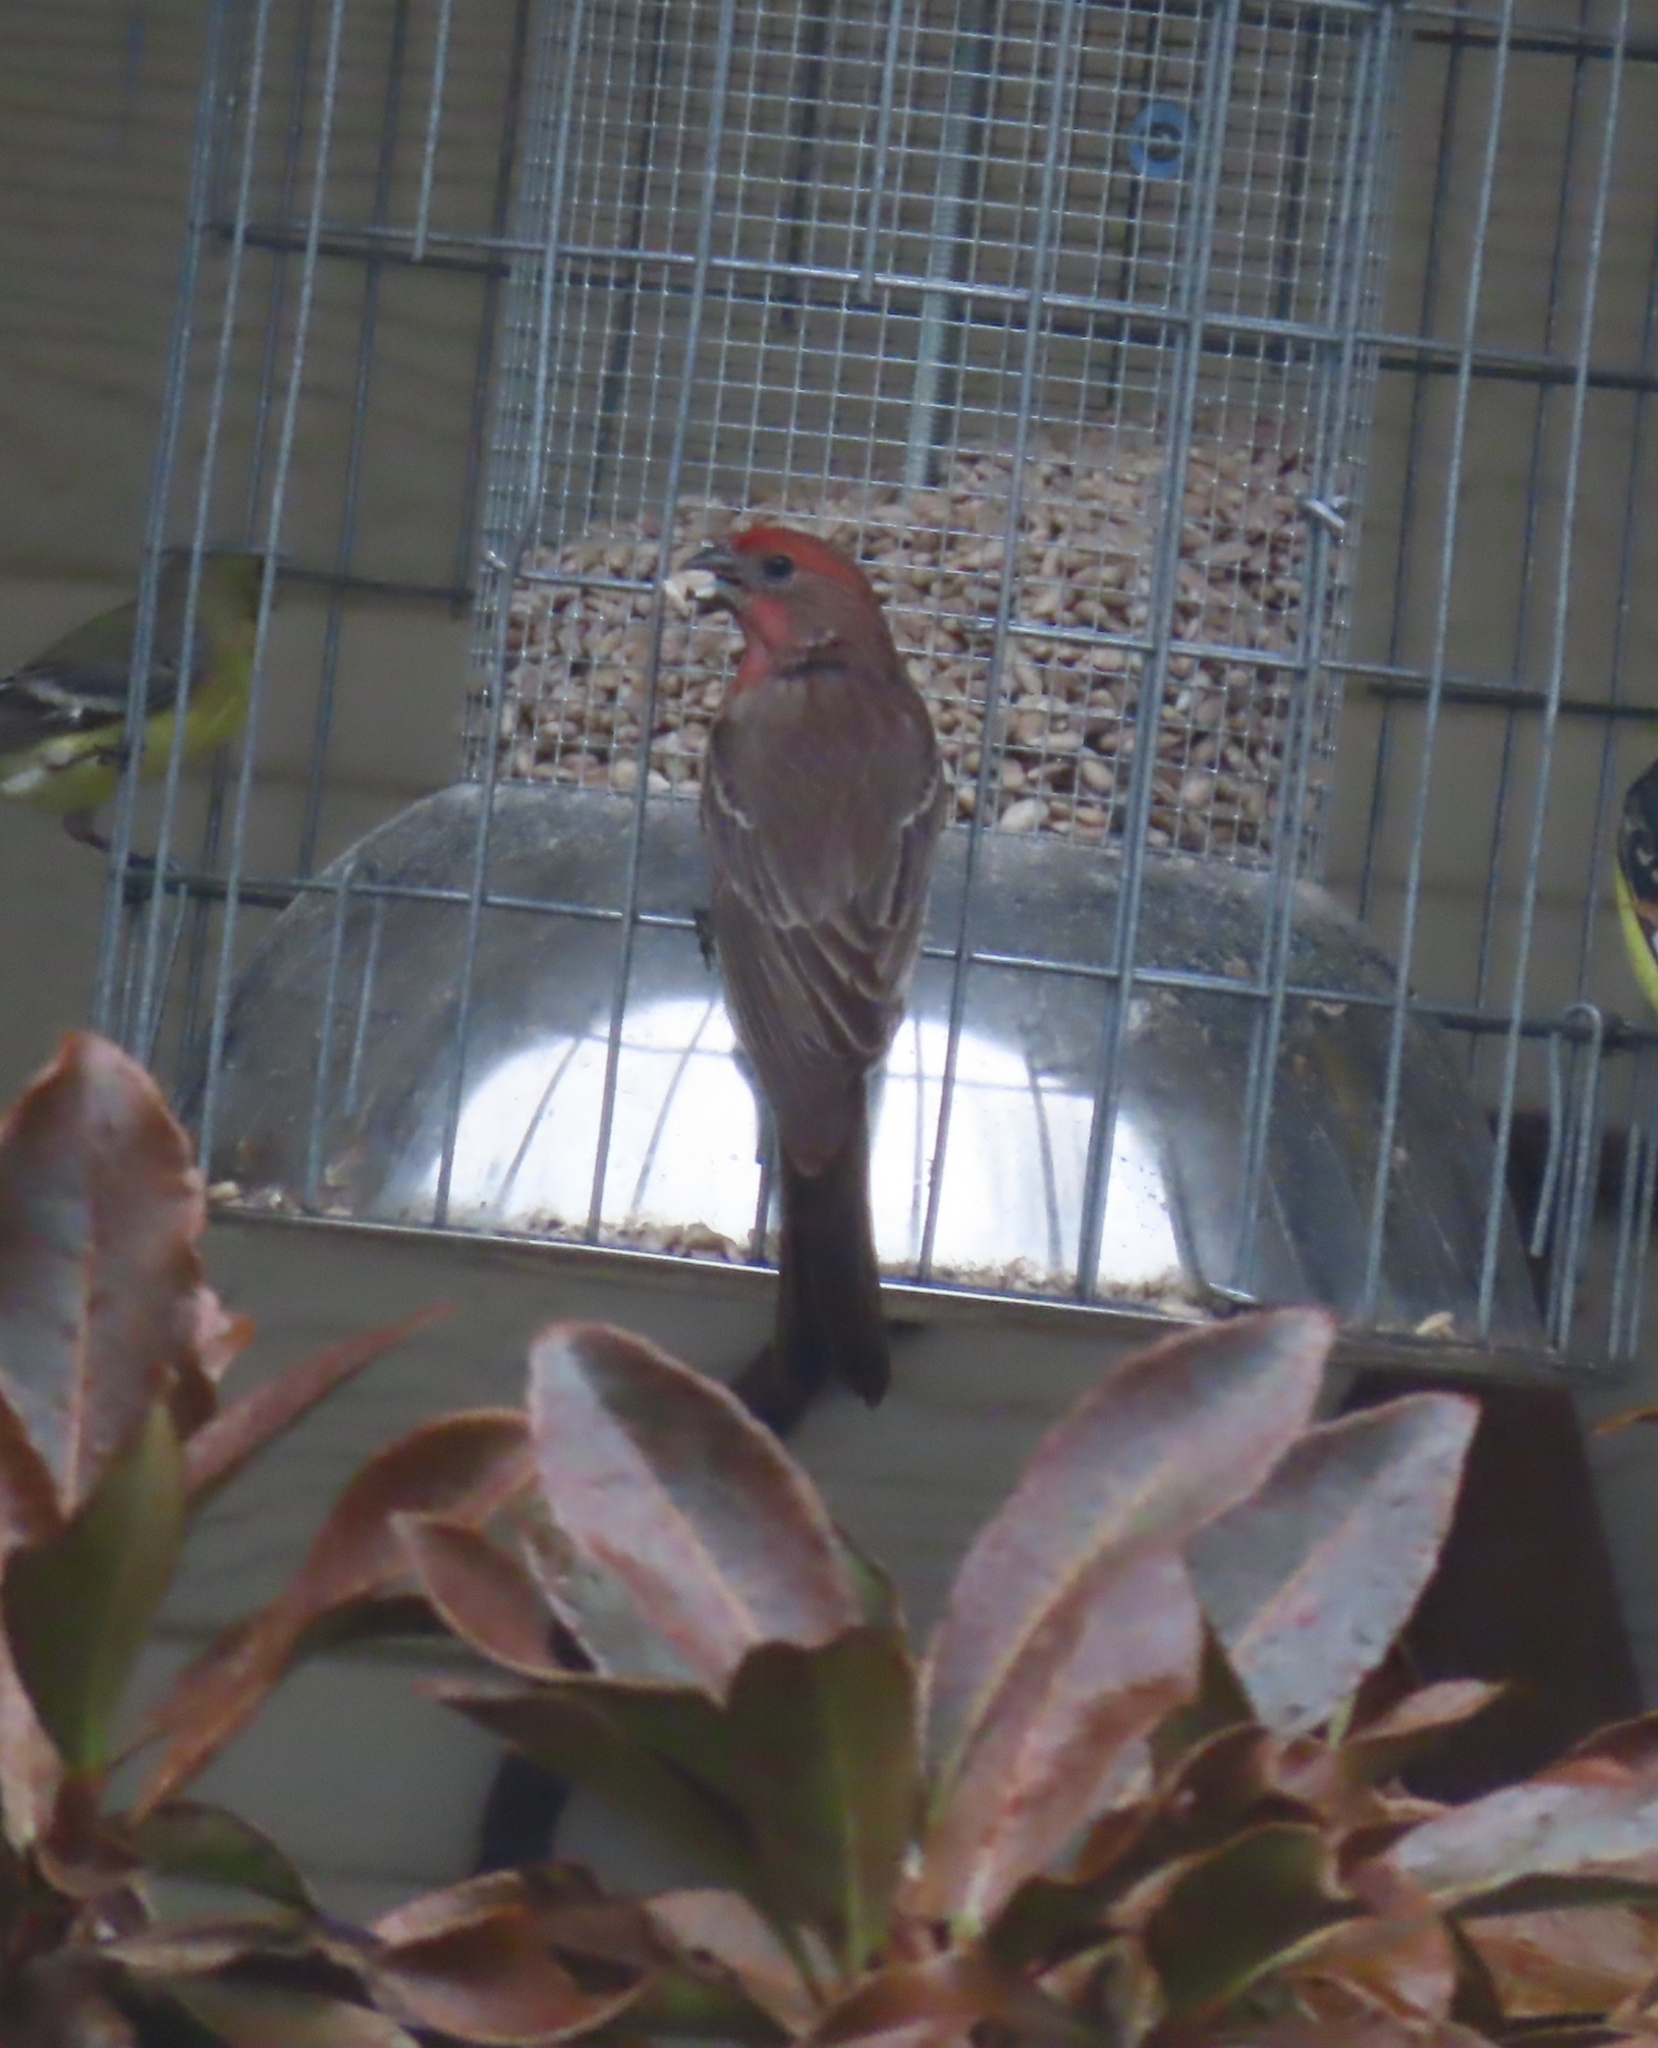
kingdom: Animalia
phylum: Chordata
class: Aves
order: Passeriformes
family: Fringillidae
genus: Haemorhous
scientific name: Haemorhous mexicanus
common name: House finch
